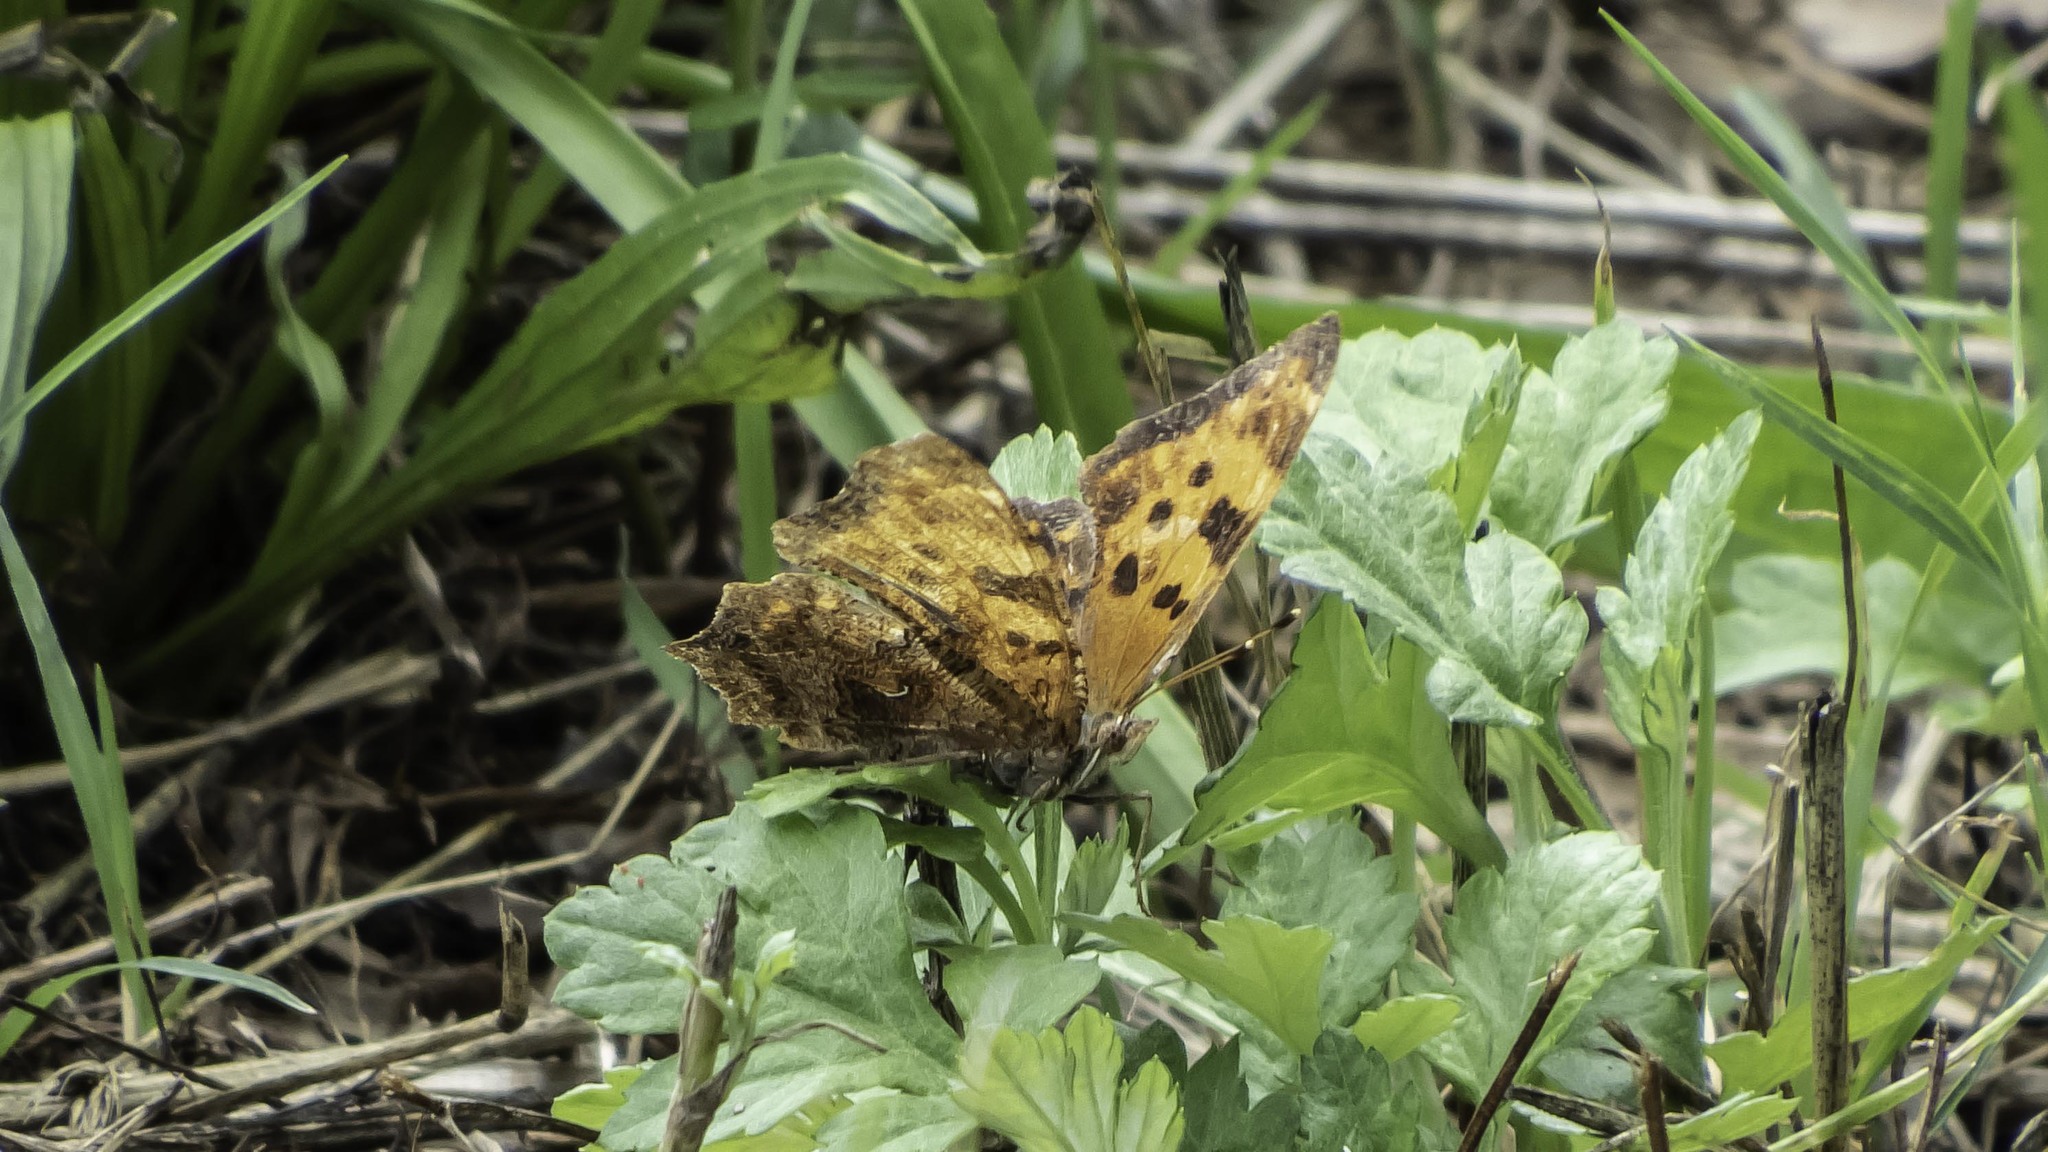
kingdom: Animalia
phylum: Arthropoda
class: Insecta
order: Lepidoptera
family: Nymphalidae
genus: Polygonia
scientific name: Polygonia comma
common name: Eastern comma
